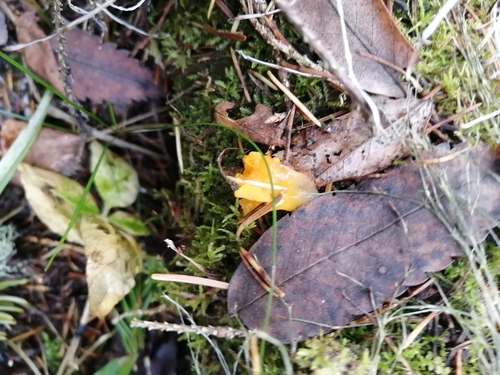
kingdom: Fungi
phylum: Basidiomycota
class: Dacrymycetes
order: Dacrymycetales
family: Dacrymycetaceae
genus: Dacrymyces
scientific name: Dacrymyces chrysospermus
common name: Orange jelly spot
